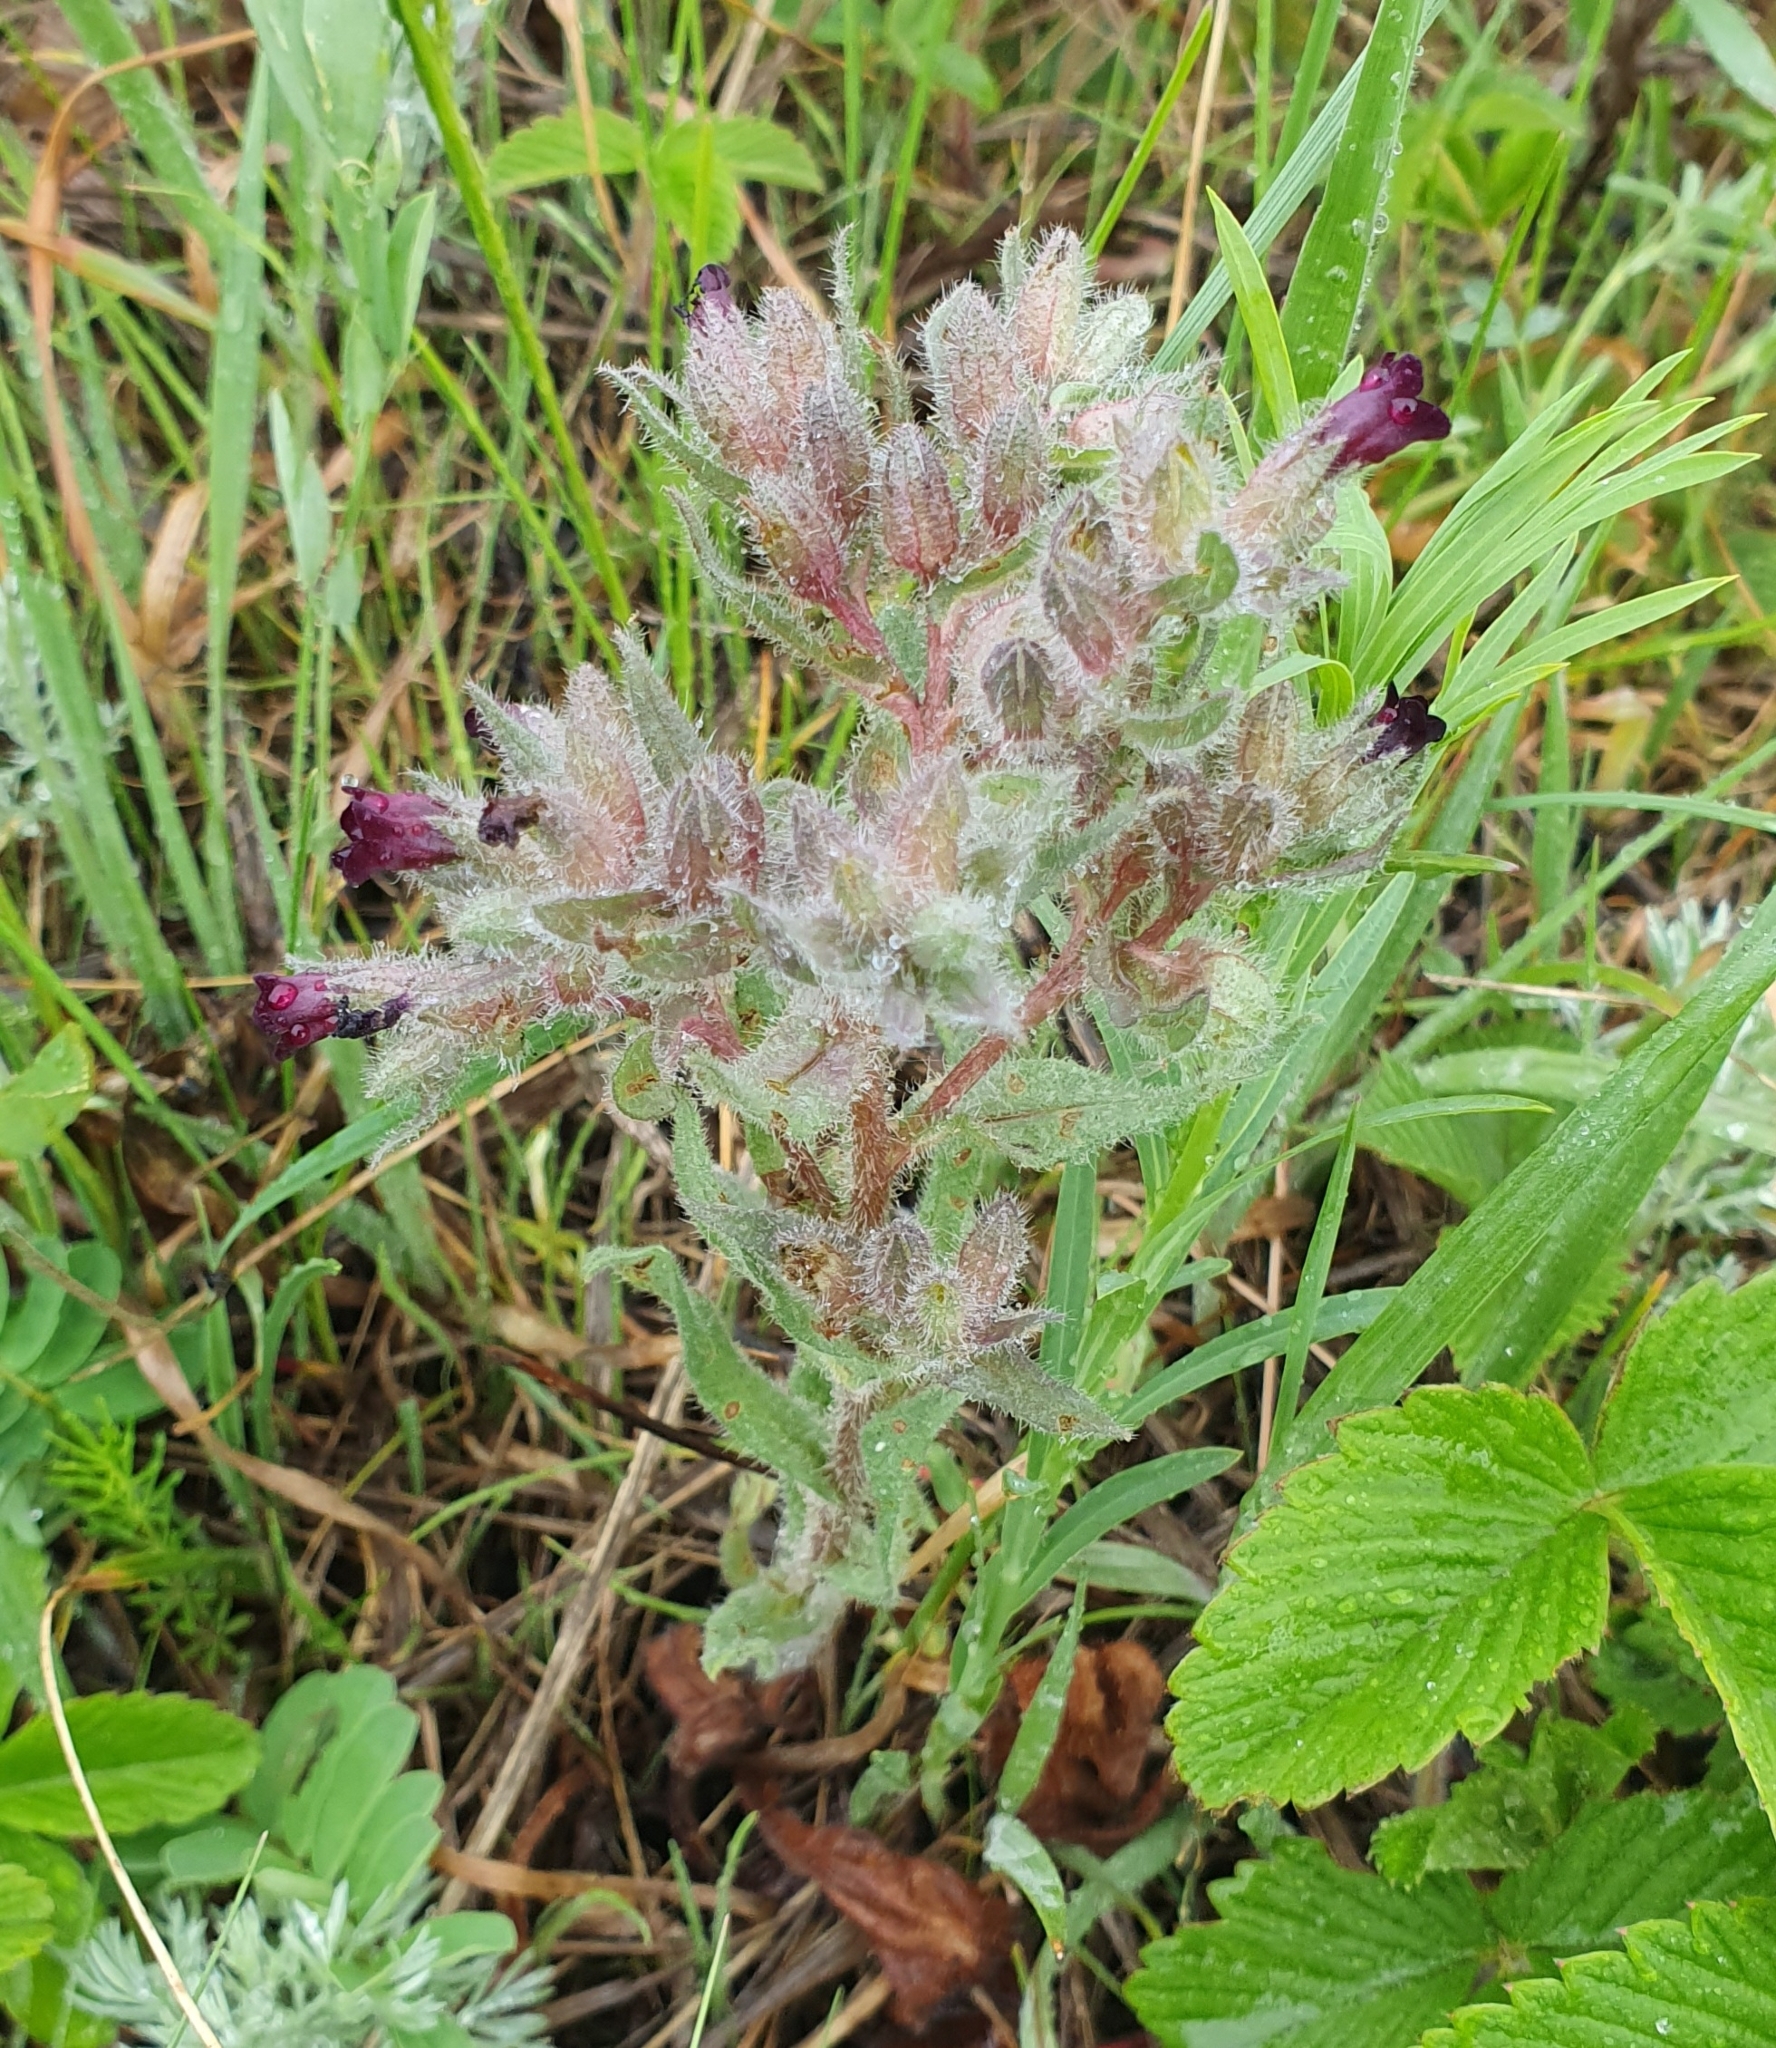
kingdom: Plantae
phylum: Tracheophyta
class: Magnoliopsida
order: Boraginales
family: Boraginaceae
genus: Nonea
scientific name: Nonea pulla
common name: Brown nonea
